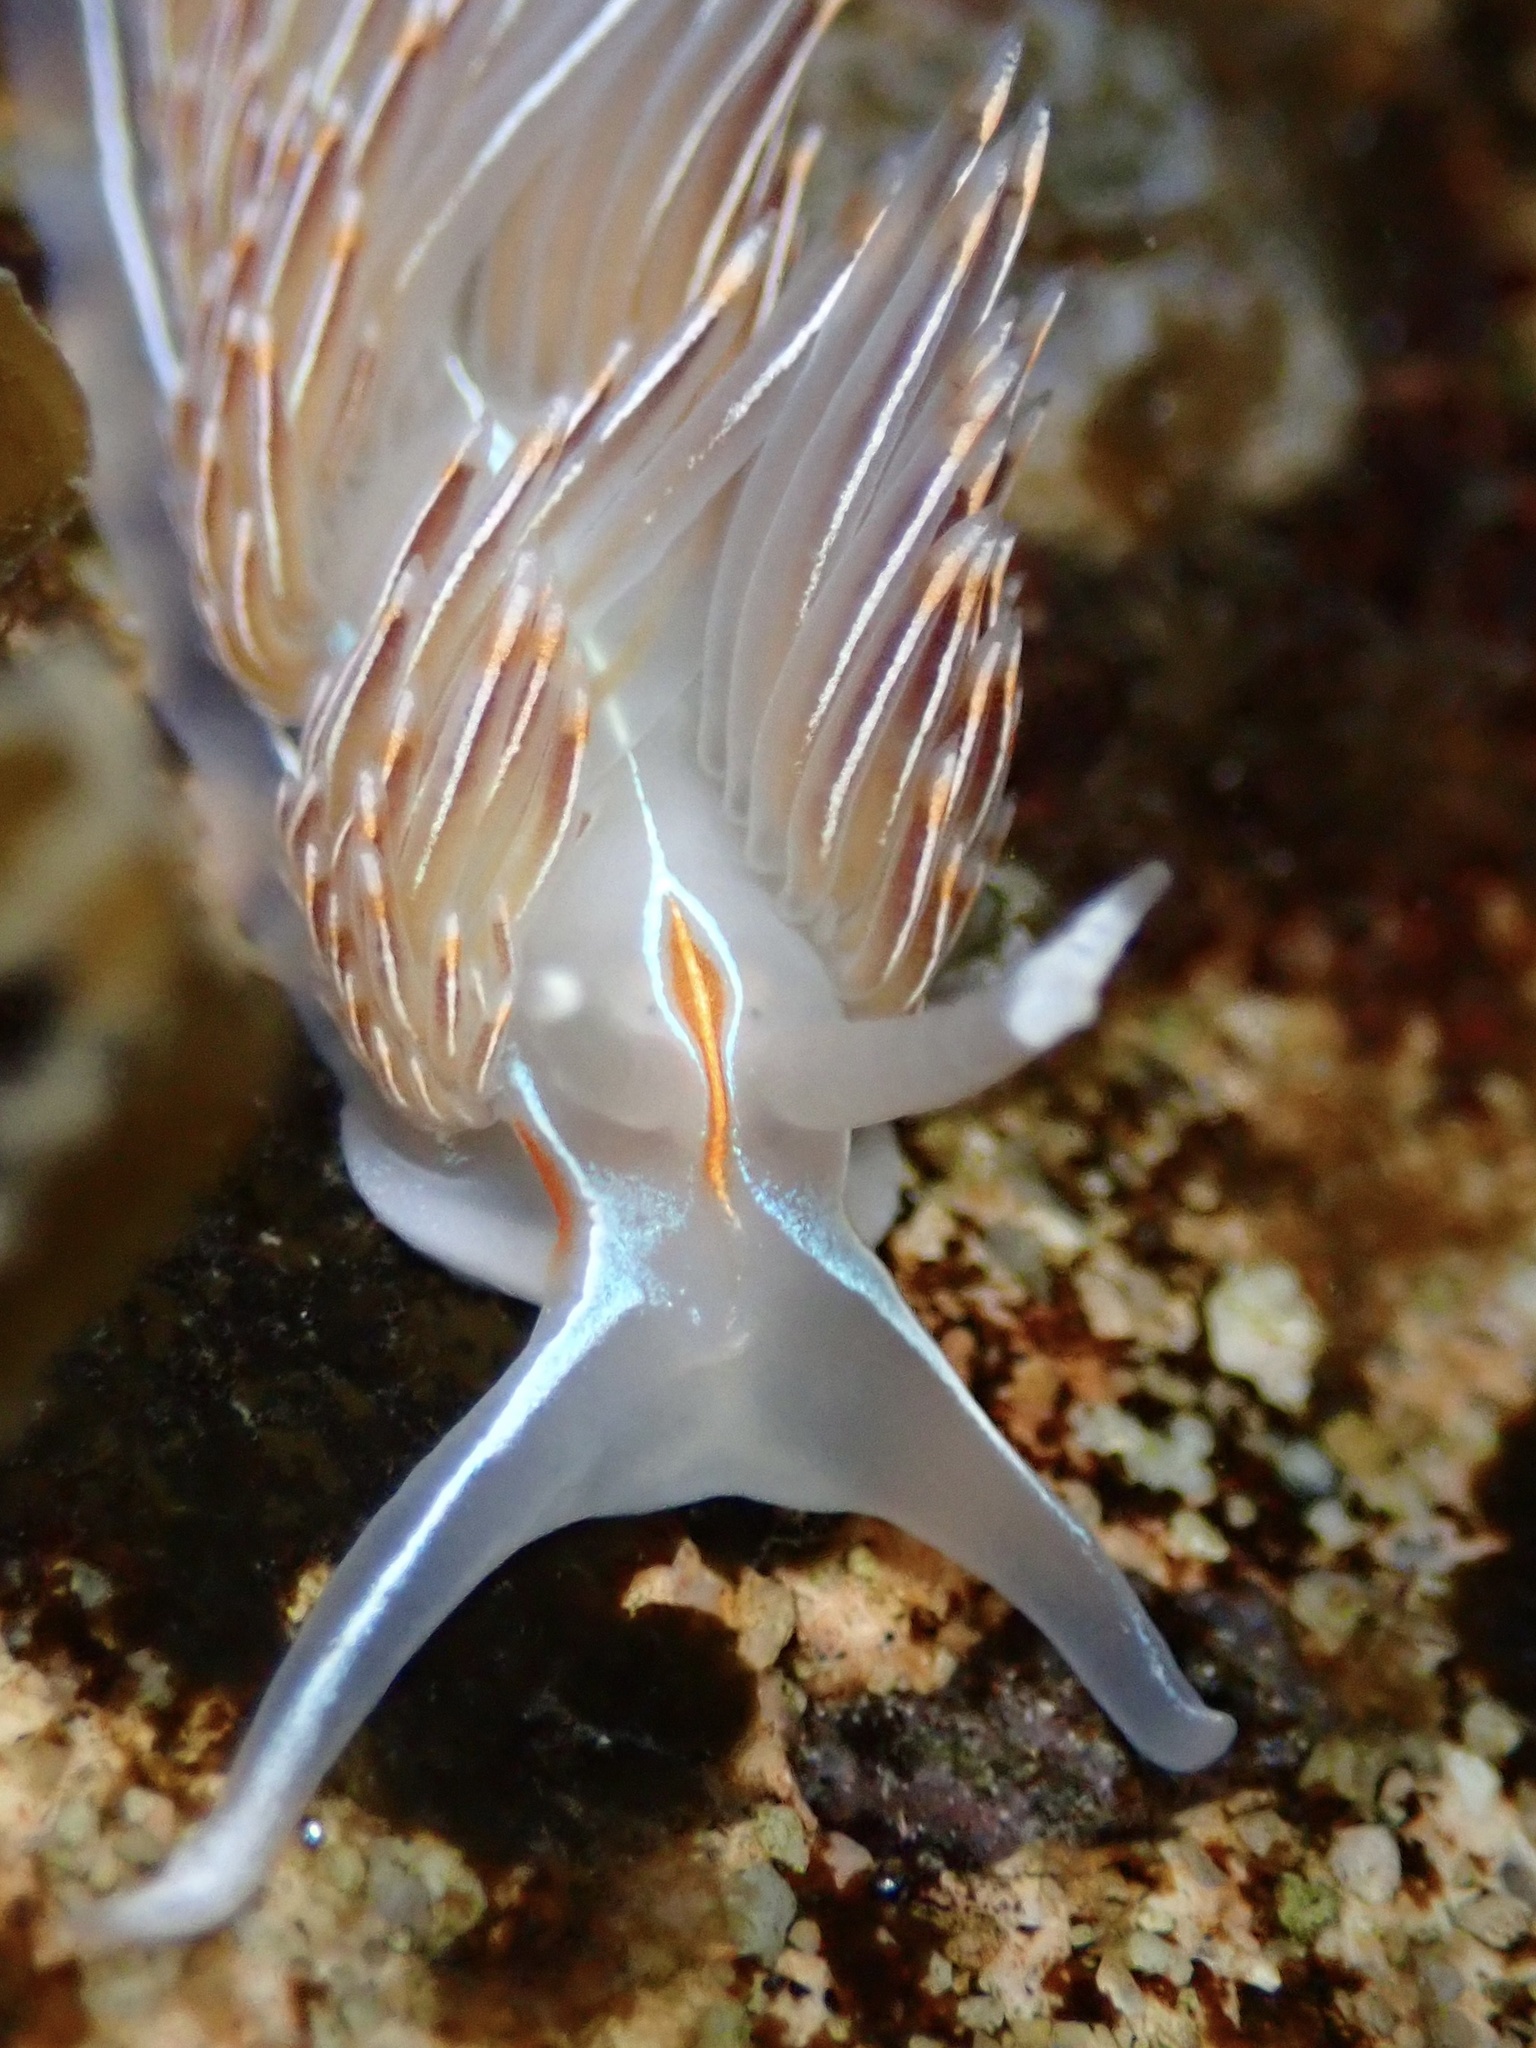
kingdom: Animalia
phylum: Mollusca
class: Gastropoda
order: Nudibranchia
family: Myrrhinidae
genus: Hermissenda
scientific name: Hermissenda crassicornis
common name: Hermissenda
